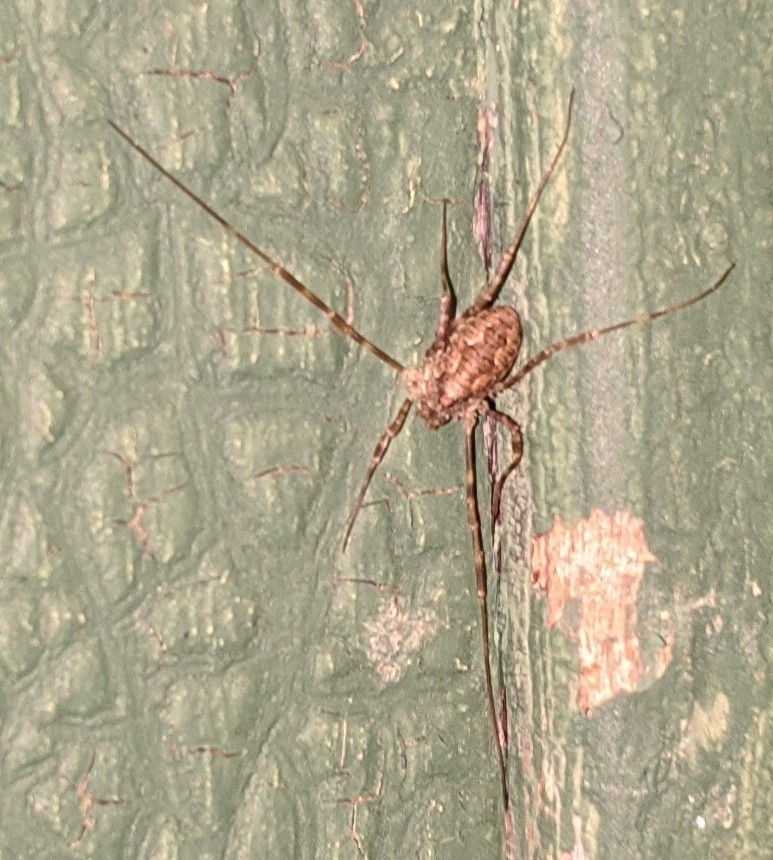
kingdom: Animalia
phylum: Arthropoda
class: Arachnida
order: Opiliones
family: Phalangiidae
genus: Odiellus
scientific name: Odiellus pictus
